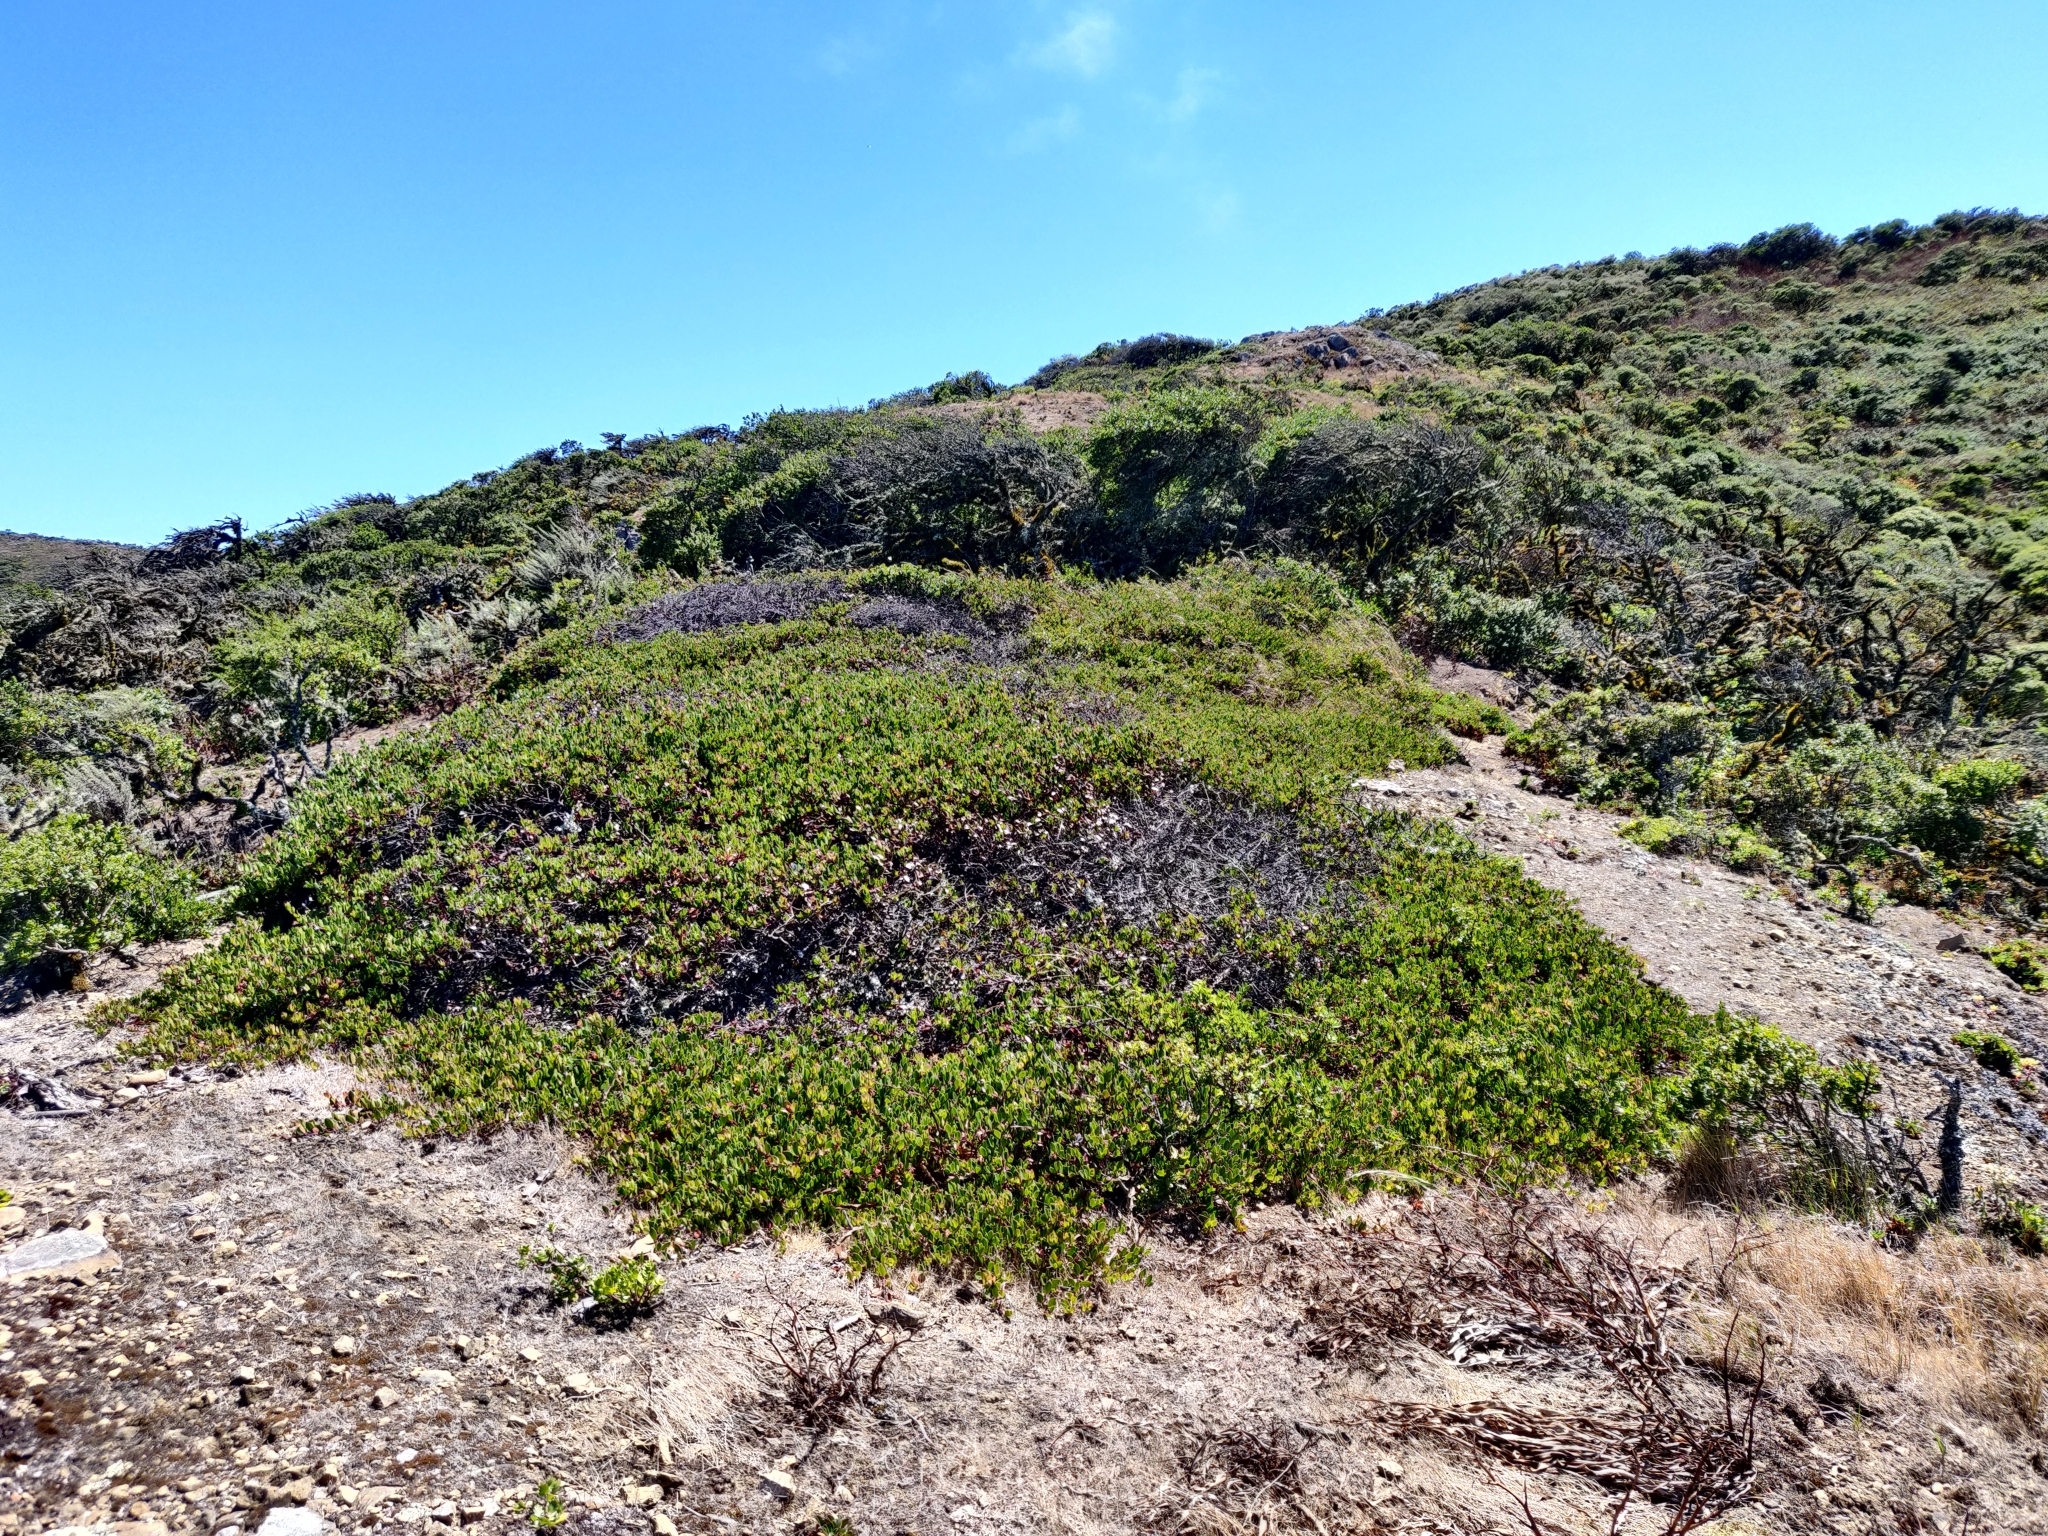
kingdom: Plantae
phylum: Tracheophyta
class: Magnoliopsida
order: Ericales
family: Ericaceae
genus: Arctostaphylos
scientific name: Arctostaphylos uva-ursi
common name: Bearberry
